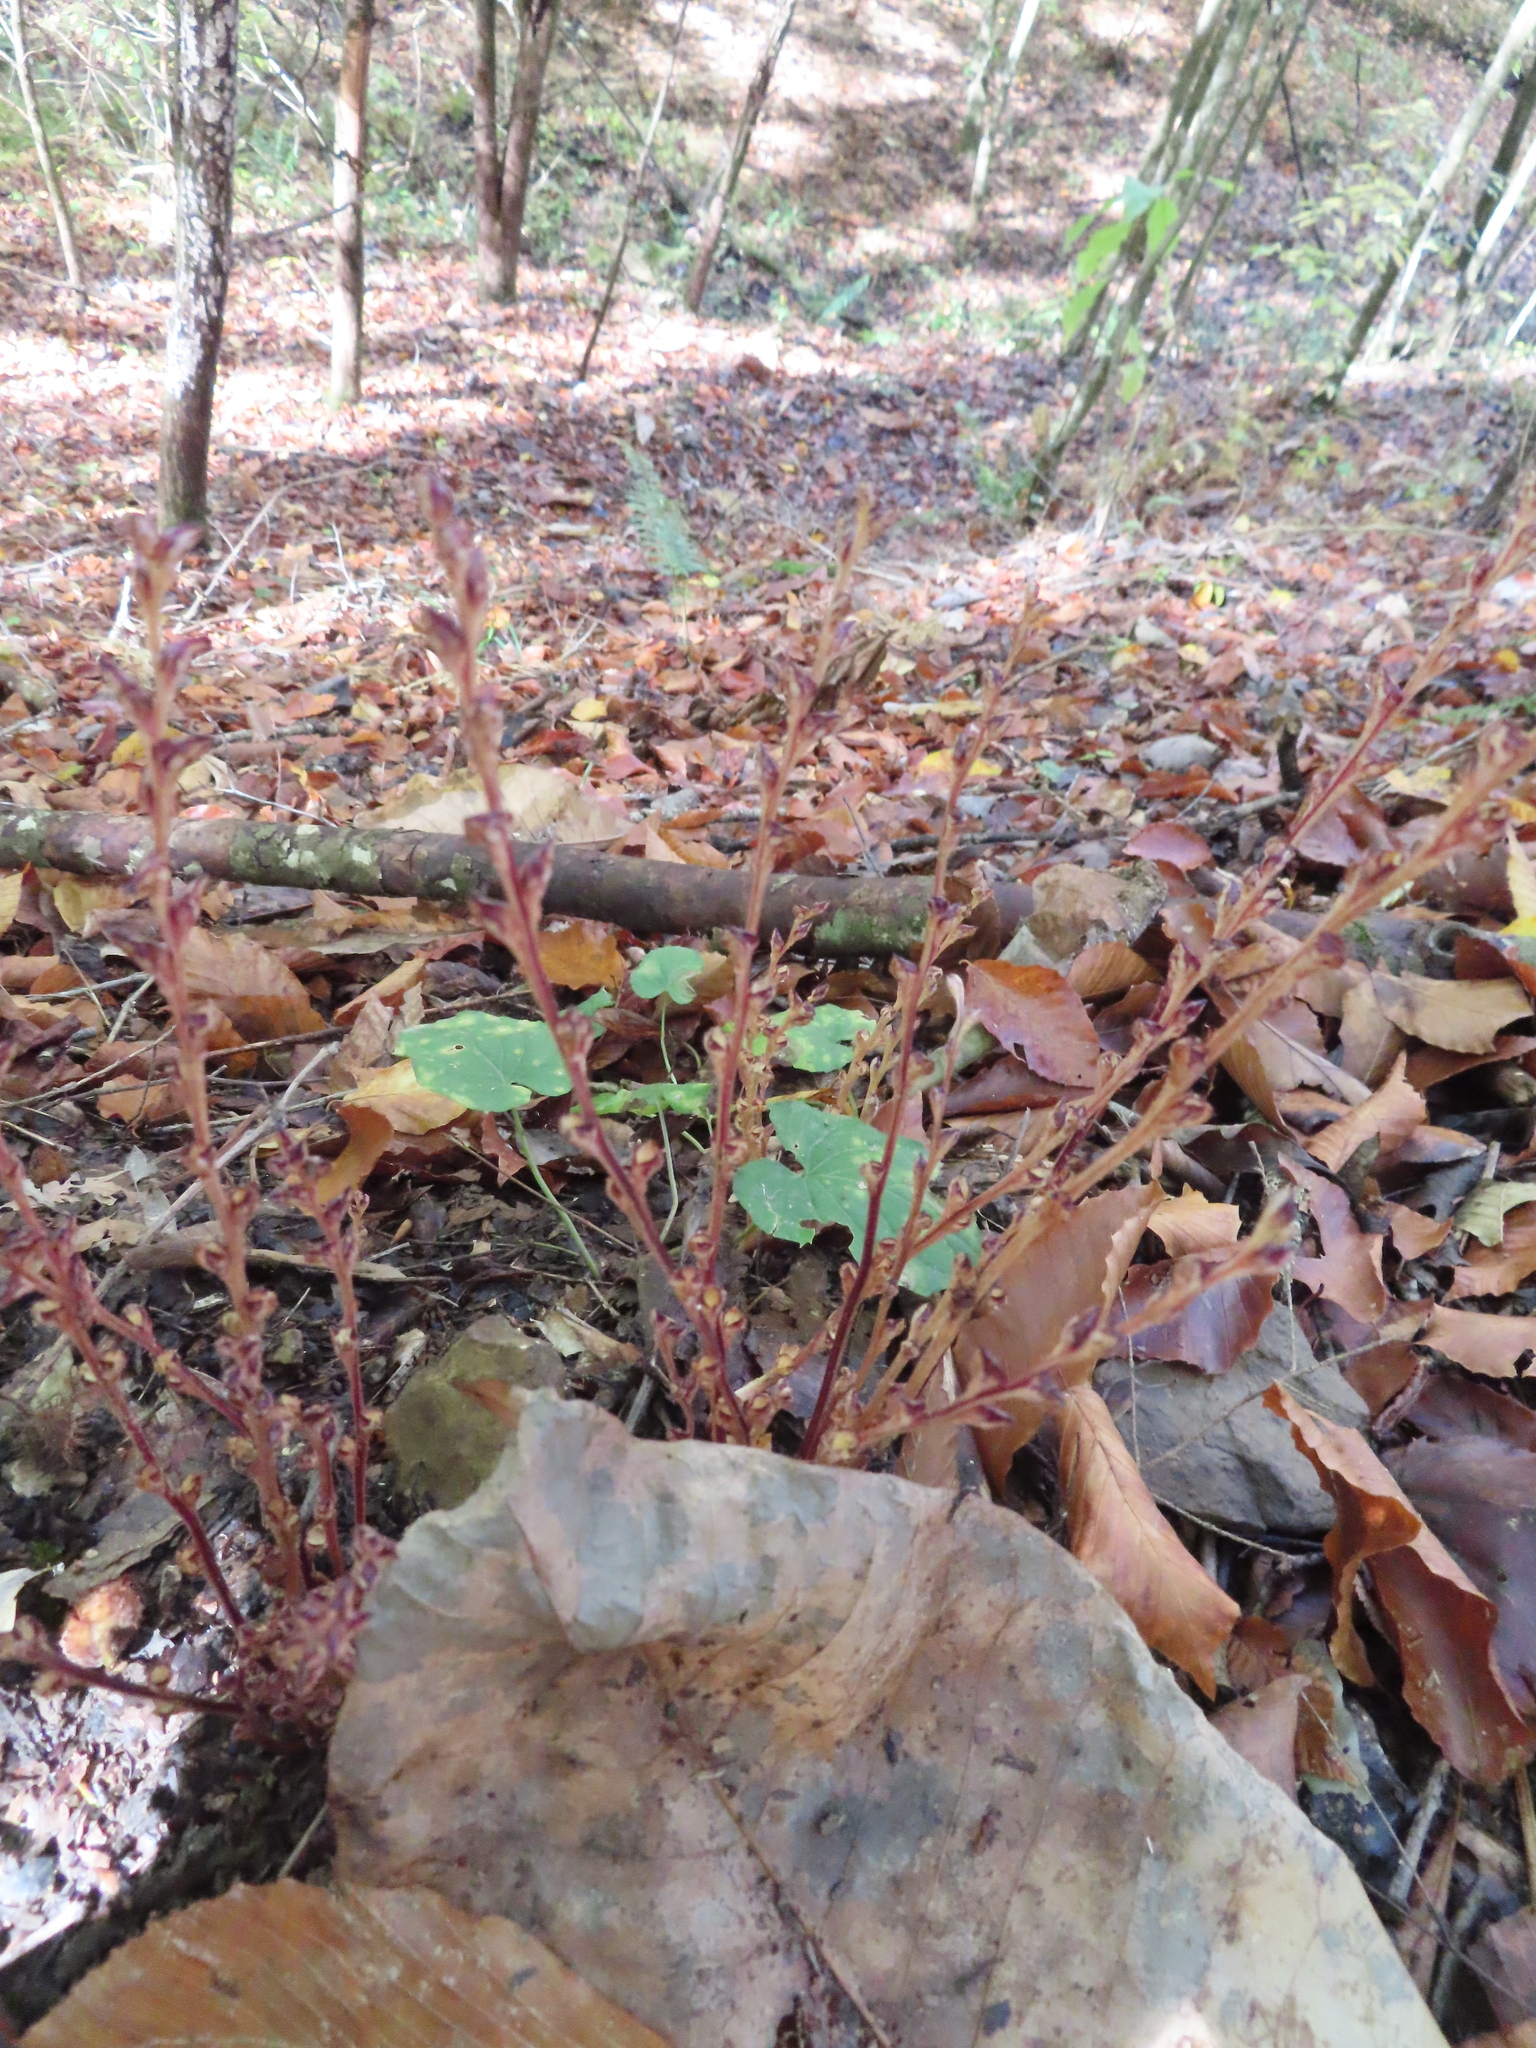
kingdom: Plantae
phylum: Tracheophyta
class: Magnoliopsida
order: Lamiales
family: Orobanchaceae
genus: Epifagus
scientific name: Epifagus virginiana
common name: Beechdrops
